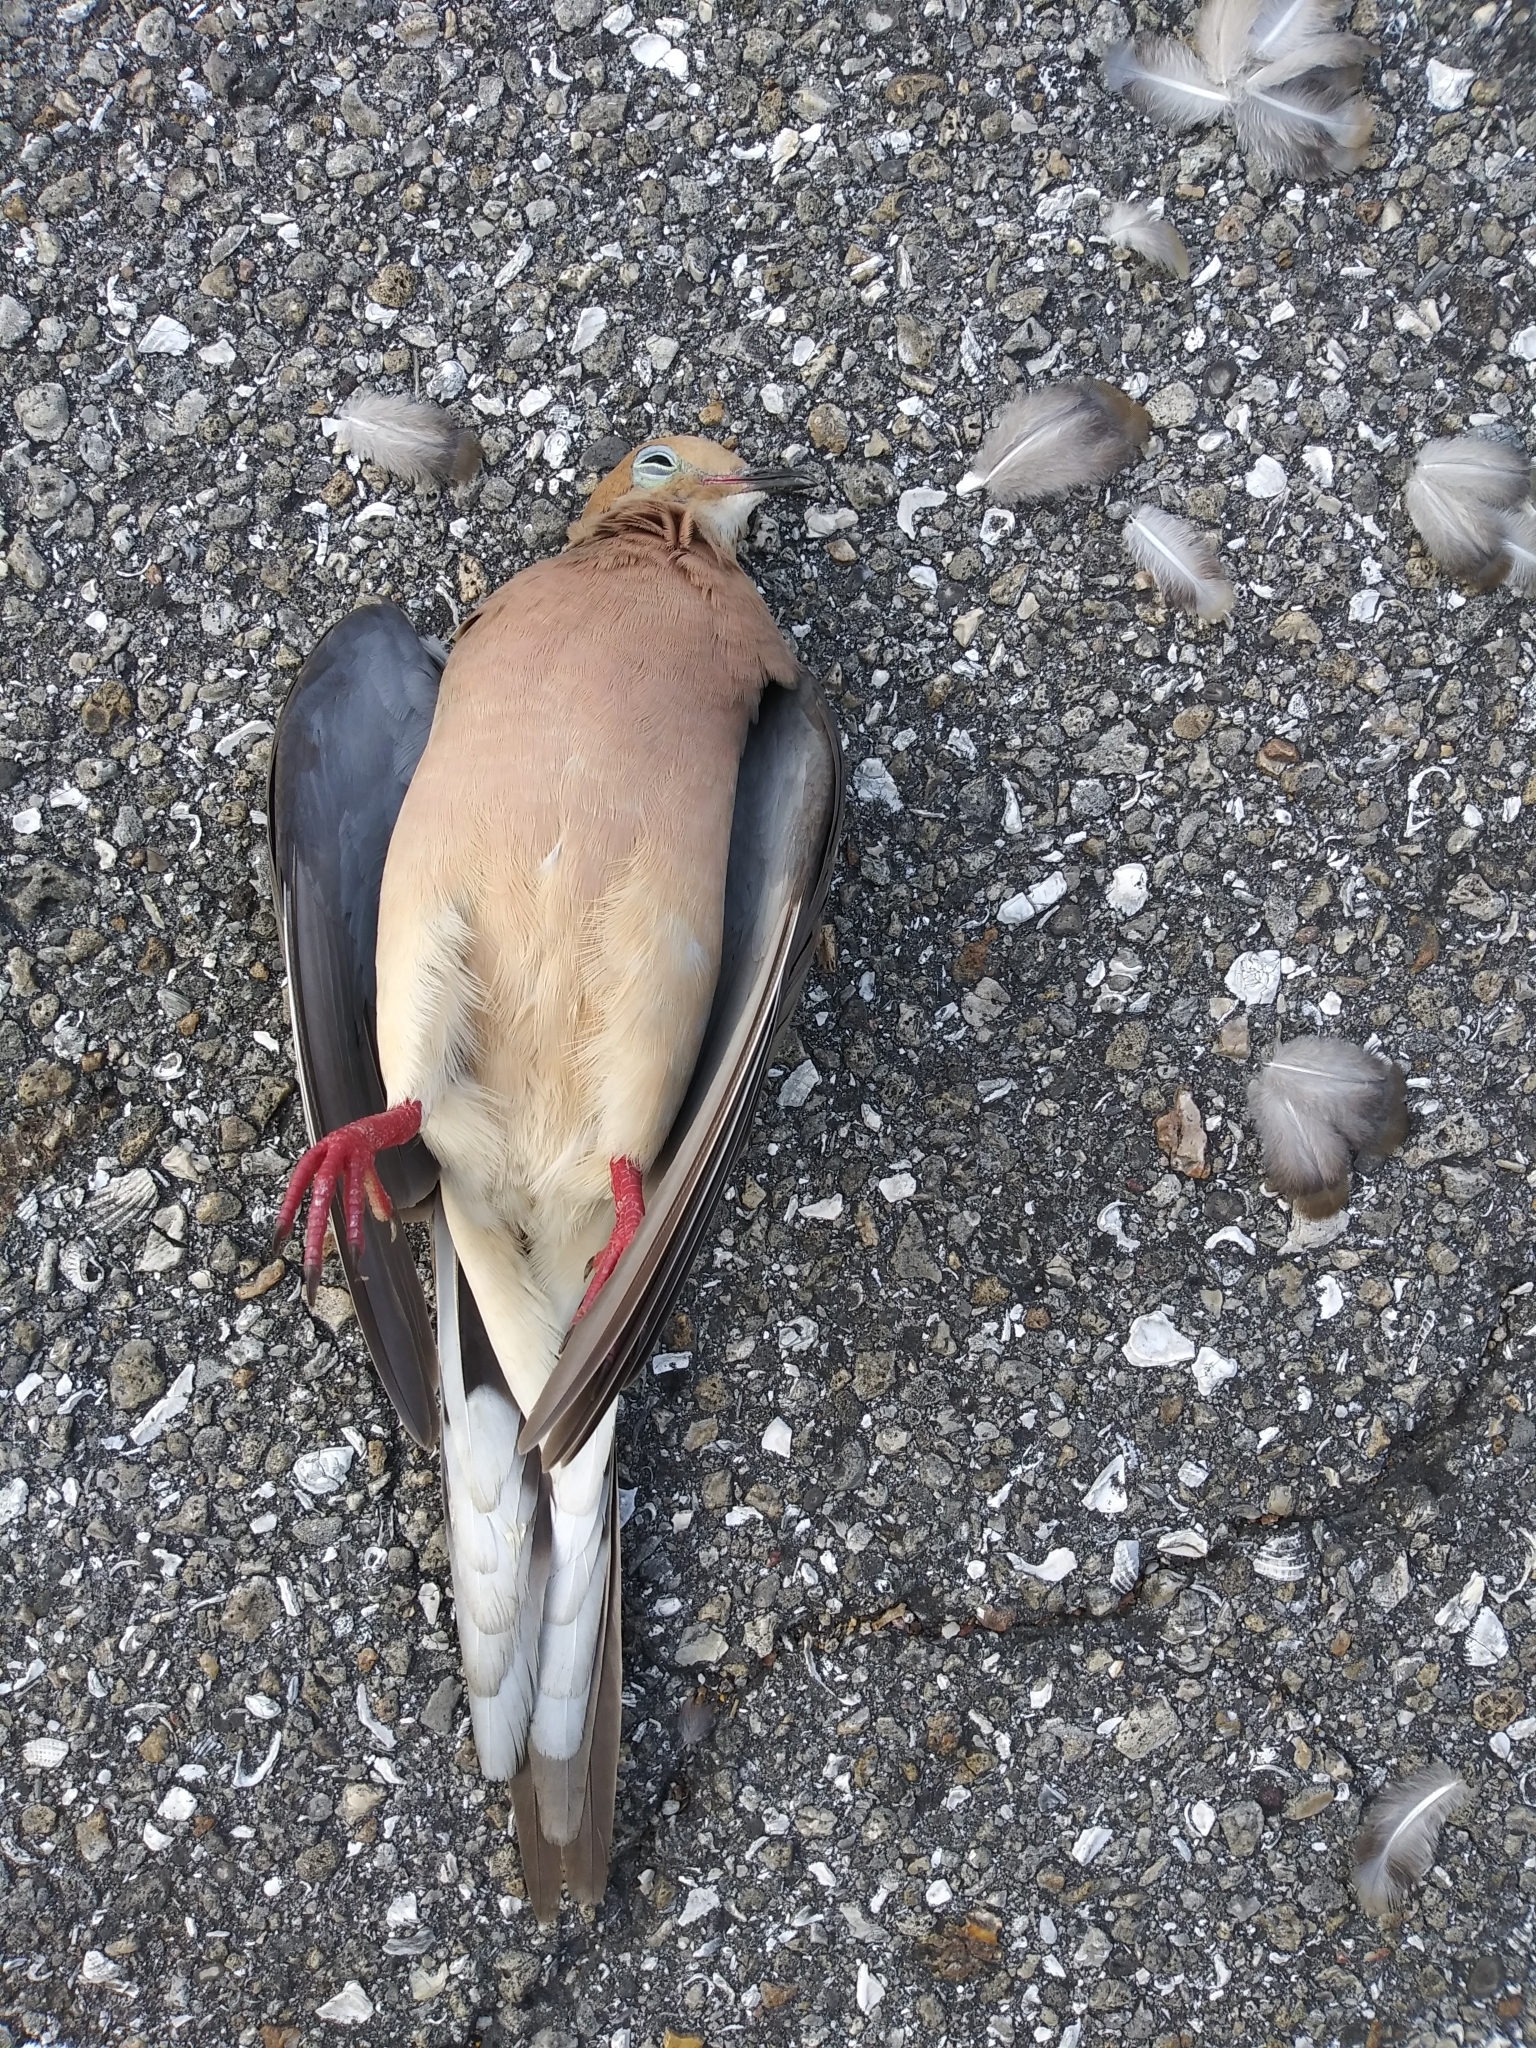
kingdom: Animalia
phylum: Chordata
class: Aves
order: Columbiformes
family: Columbidae
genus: Zenaida
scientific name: Zenaida macroura
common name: Mourning dove
